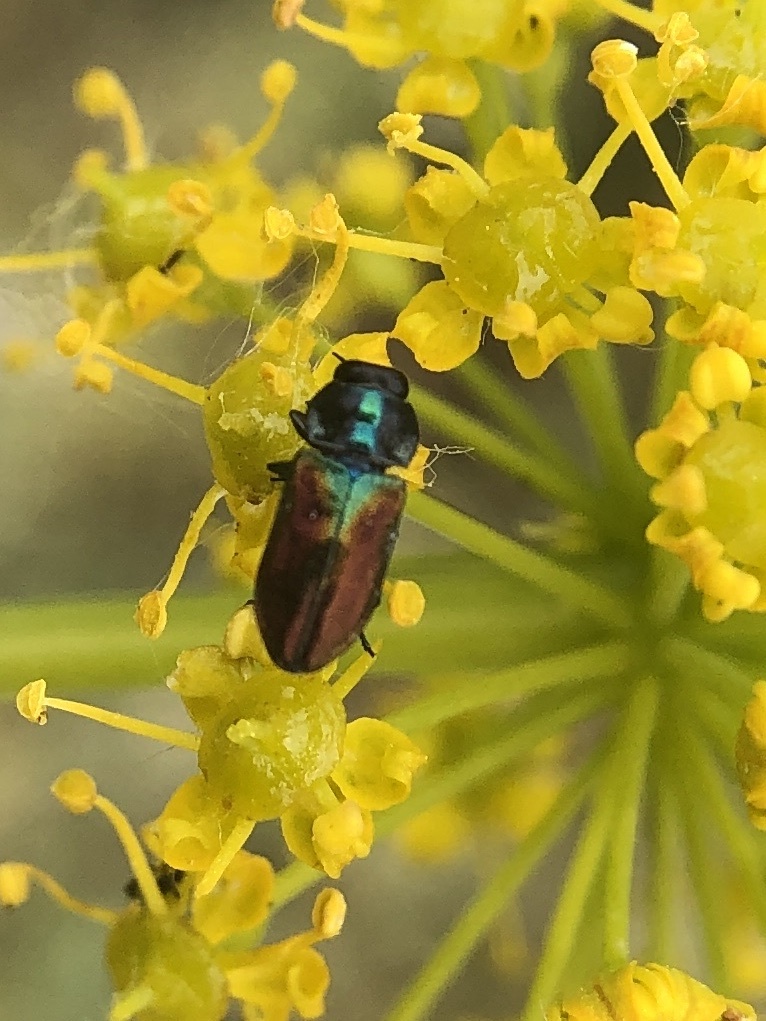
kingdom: Animalia
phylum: Arthropoda
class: Insecta
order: Coleoptera
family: Buprestidae
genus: Anthaxia
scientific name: Anthaxia thalassophila
